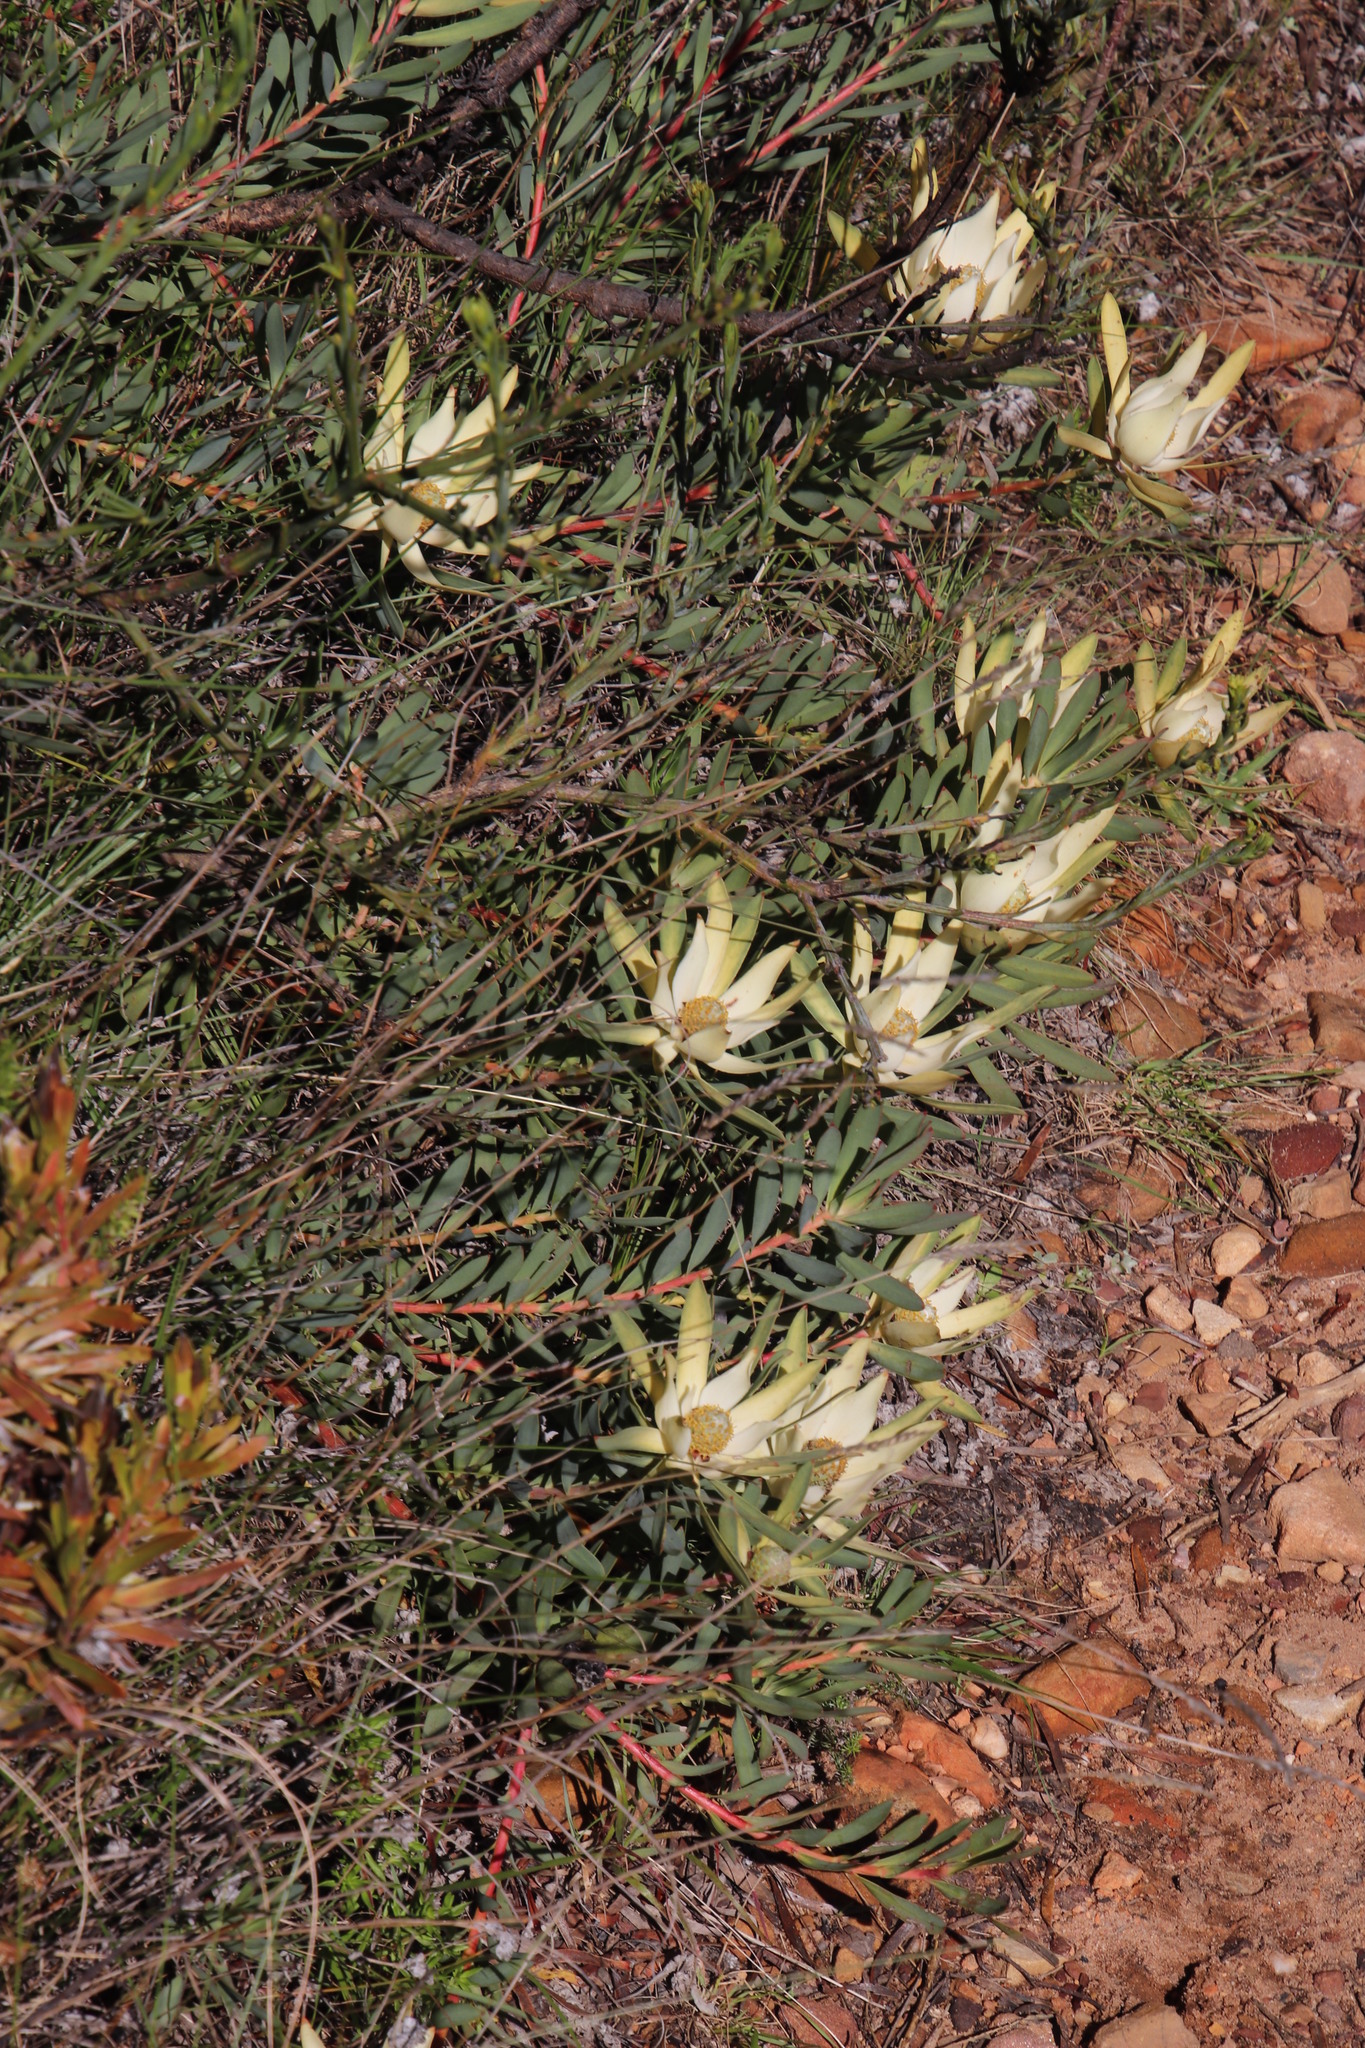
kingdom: Plantae
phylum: Tracheophyta
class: Magnoliopsida
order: Proteales
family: Proteaceae
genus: Leucadendron
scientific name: Leucadendron salignum
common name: Common sunshine conebush
